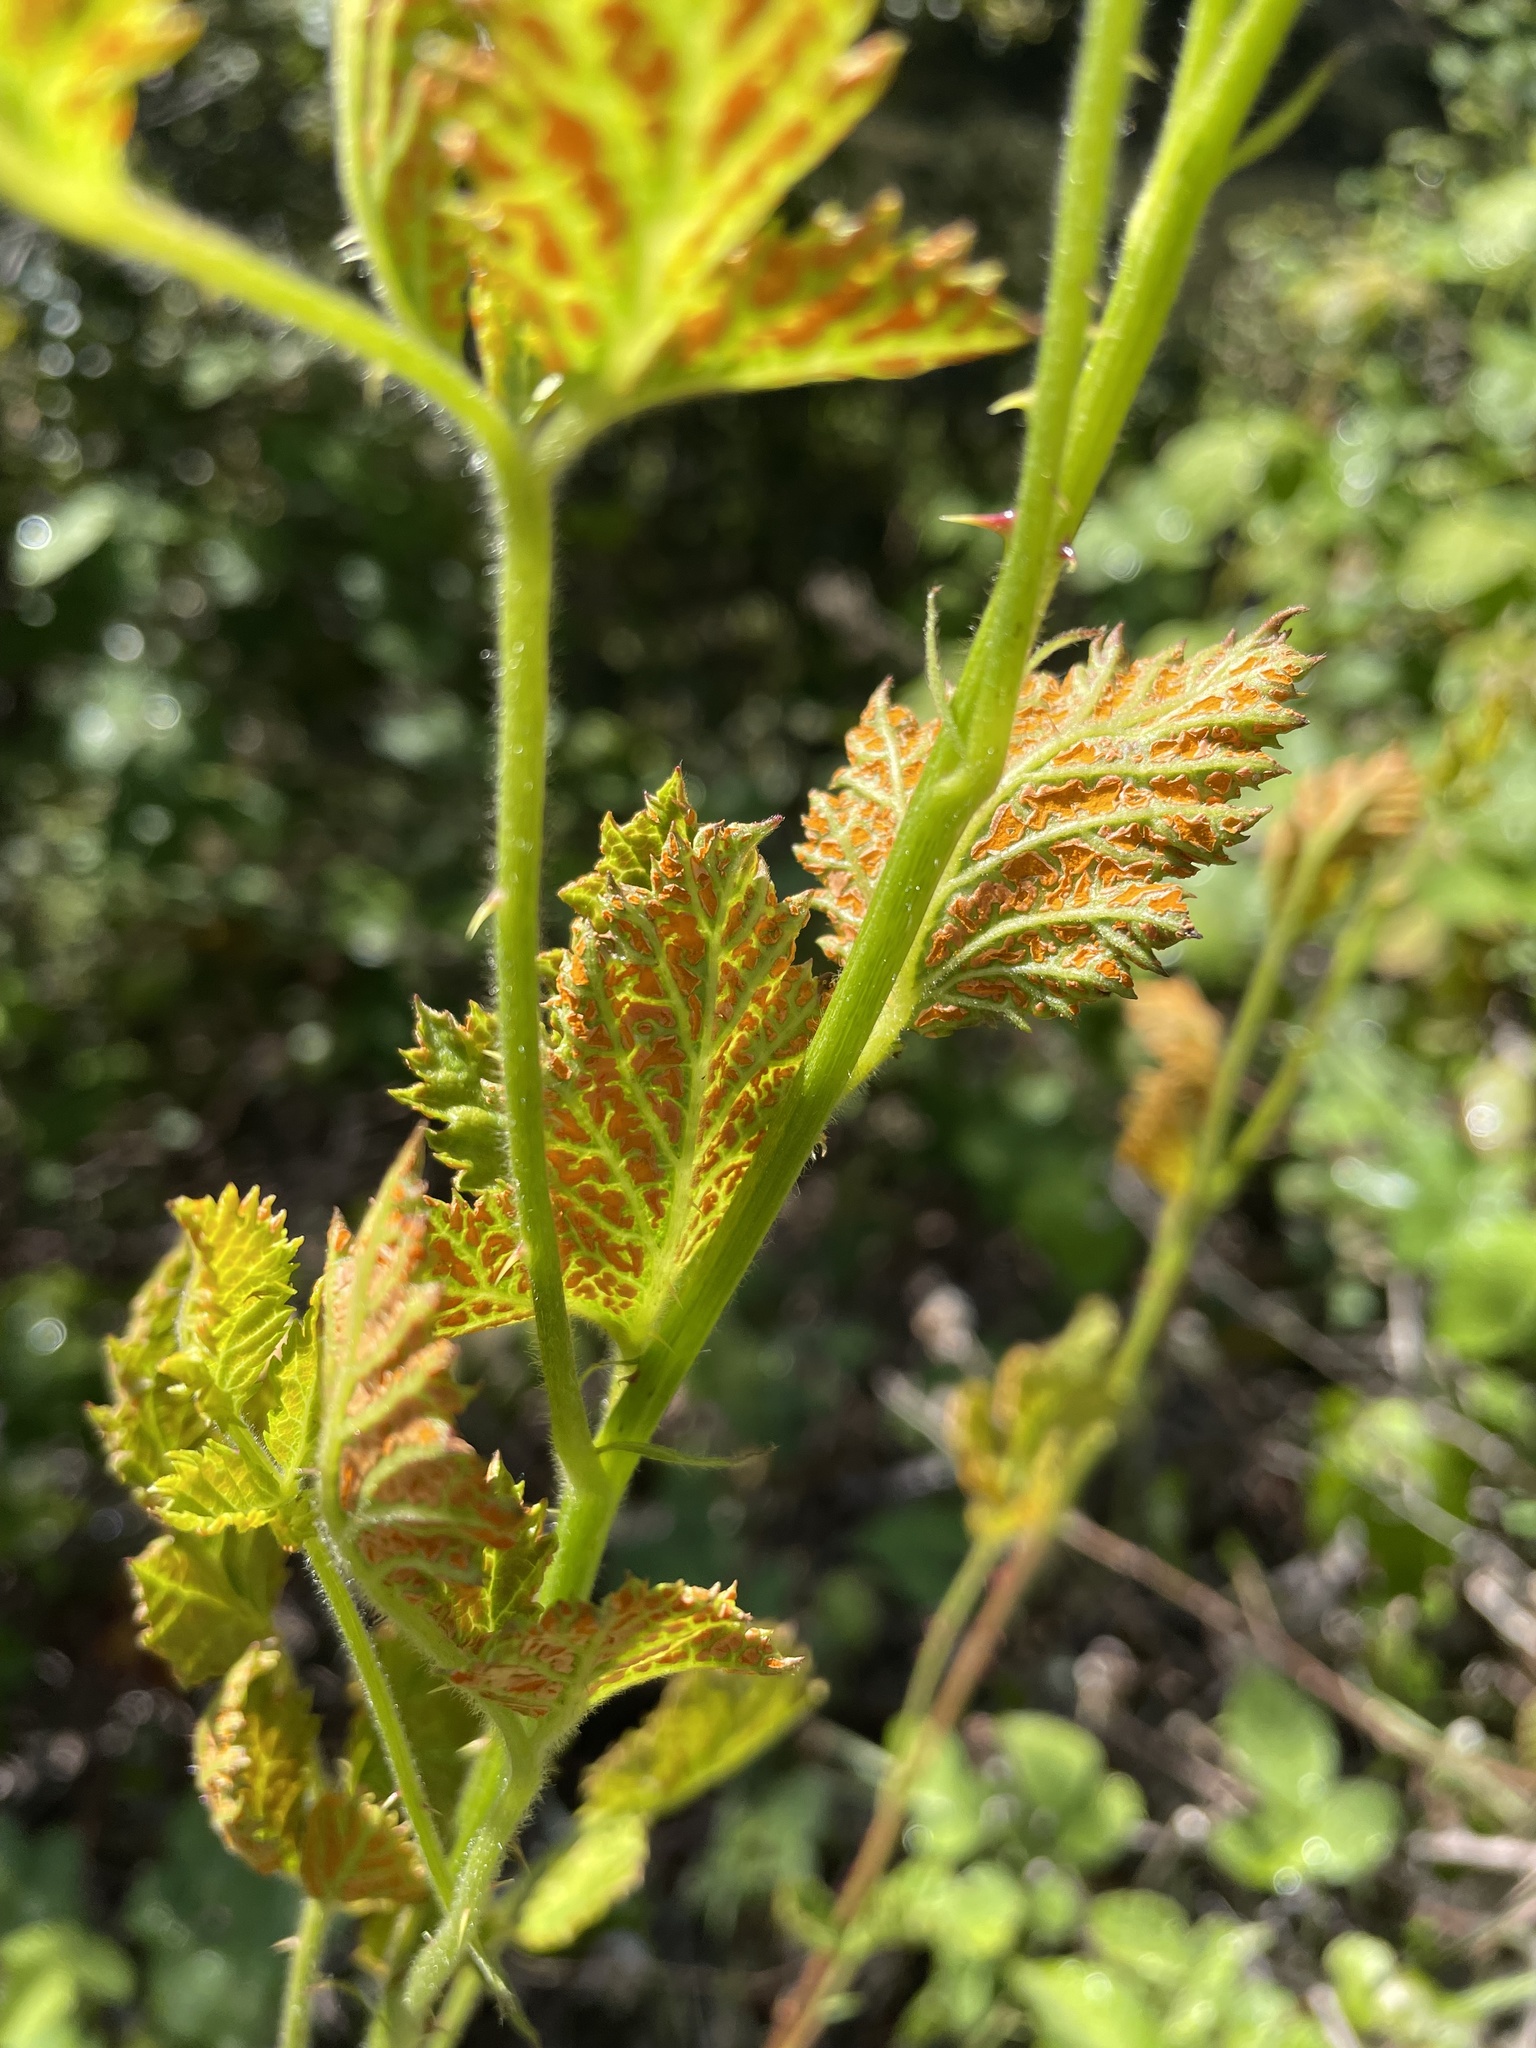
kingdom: Fungi
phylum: Basidiomycota
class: Pucciniomycetes
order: Pucciniales
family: Phragmidiaceae
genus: Arthuriomyces
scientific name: Arthuriomyces peckianus
